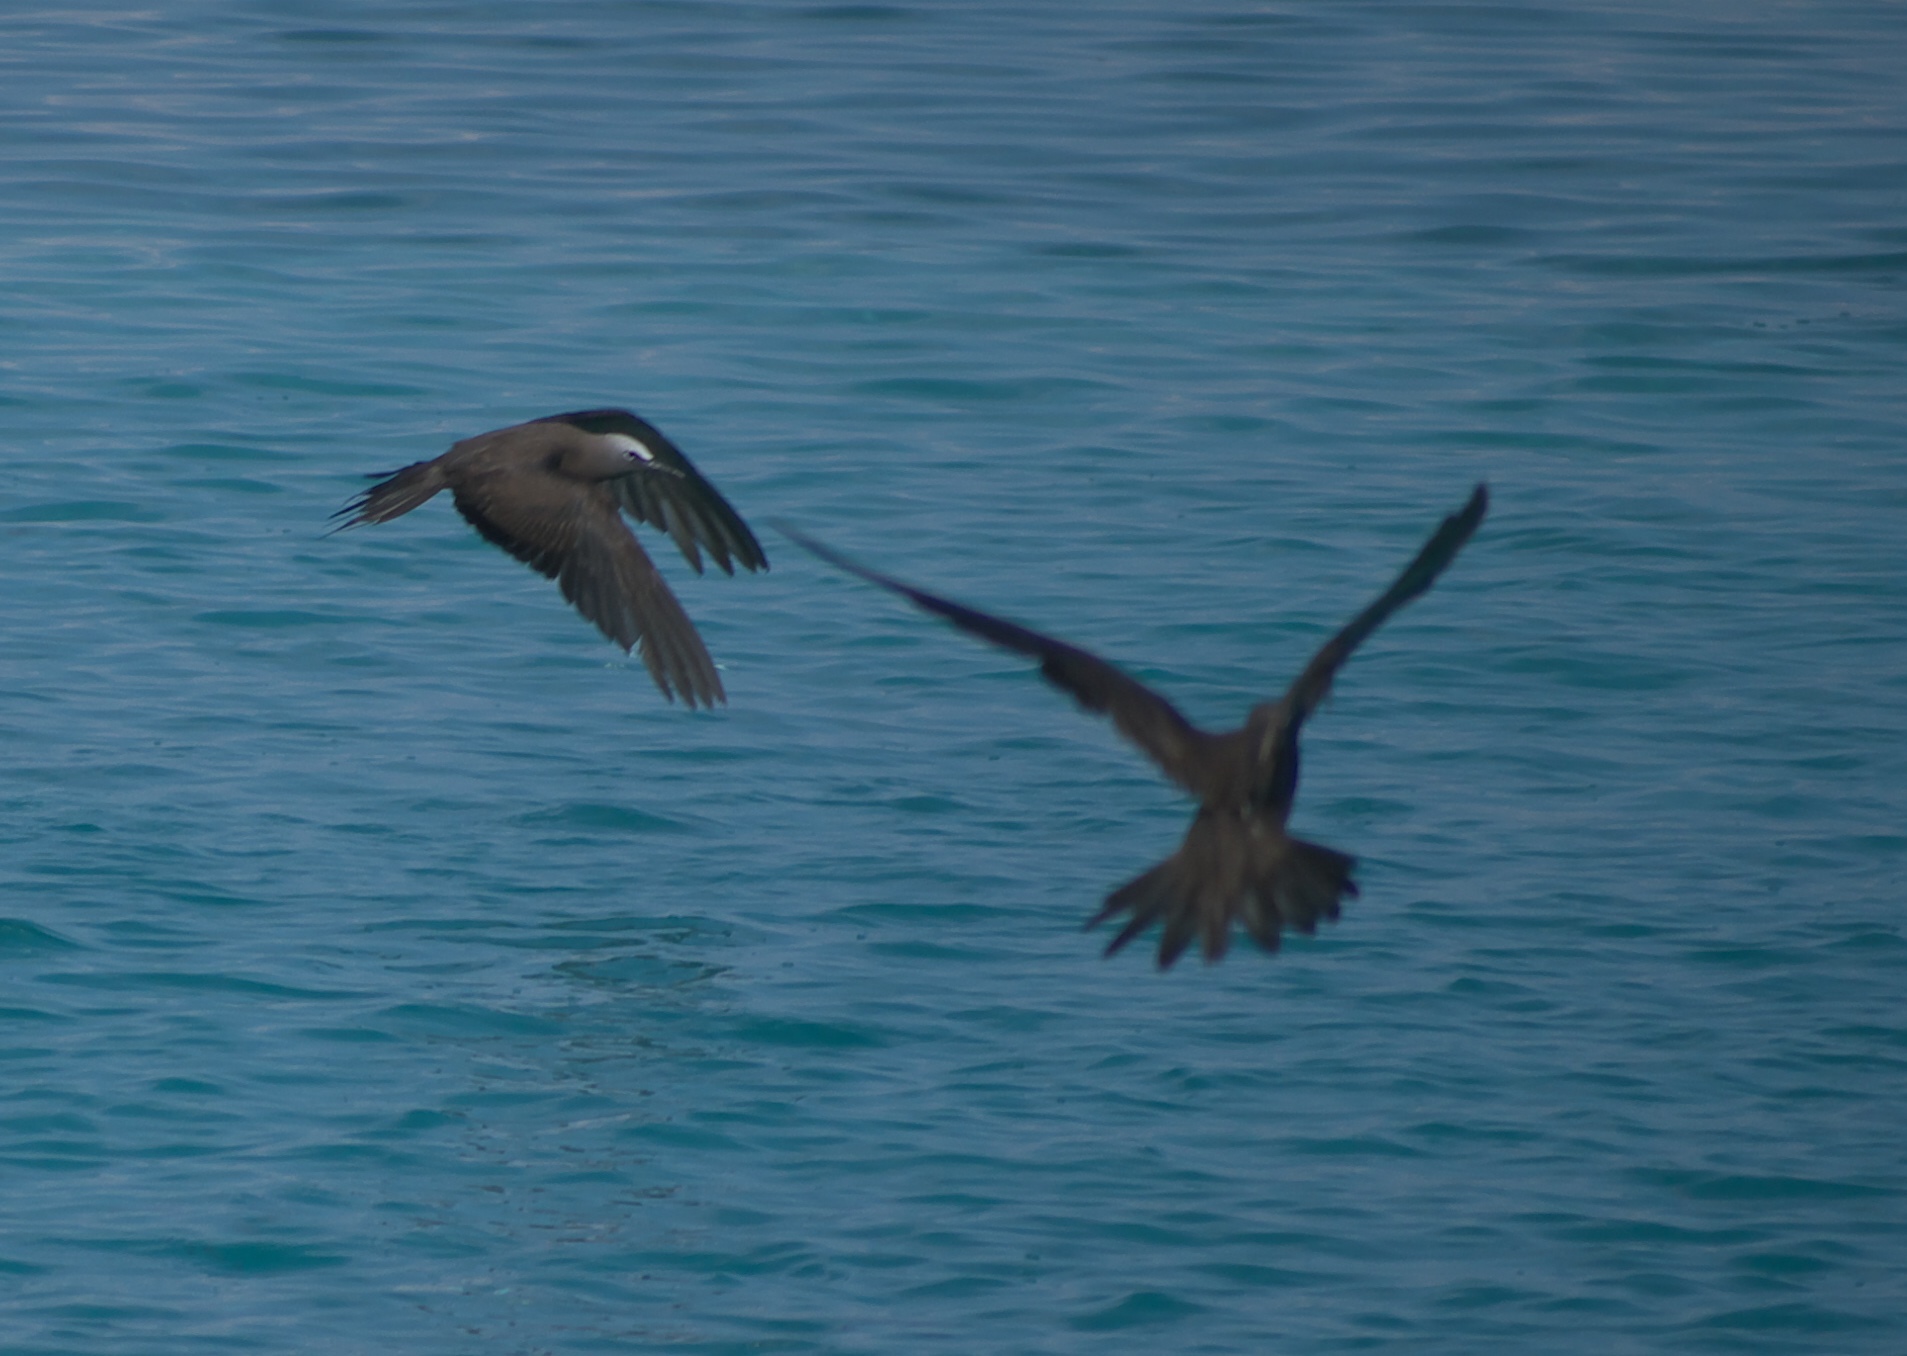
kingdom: Animalia
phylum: Chordata
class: Aves
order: Charadriiformes
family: Laridae
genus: Anous
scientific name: Anous stolidus
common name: Brown noddy
